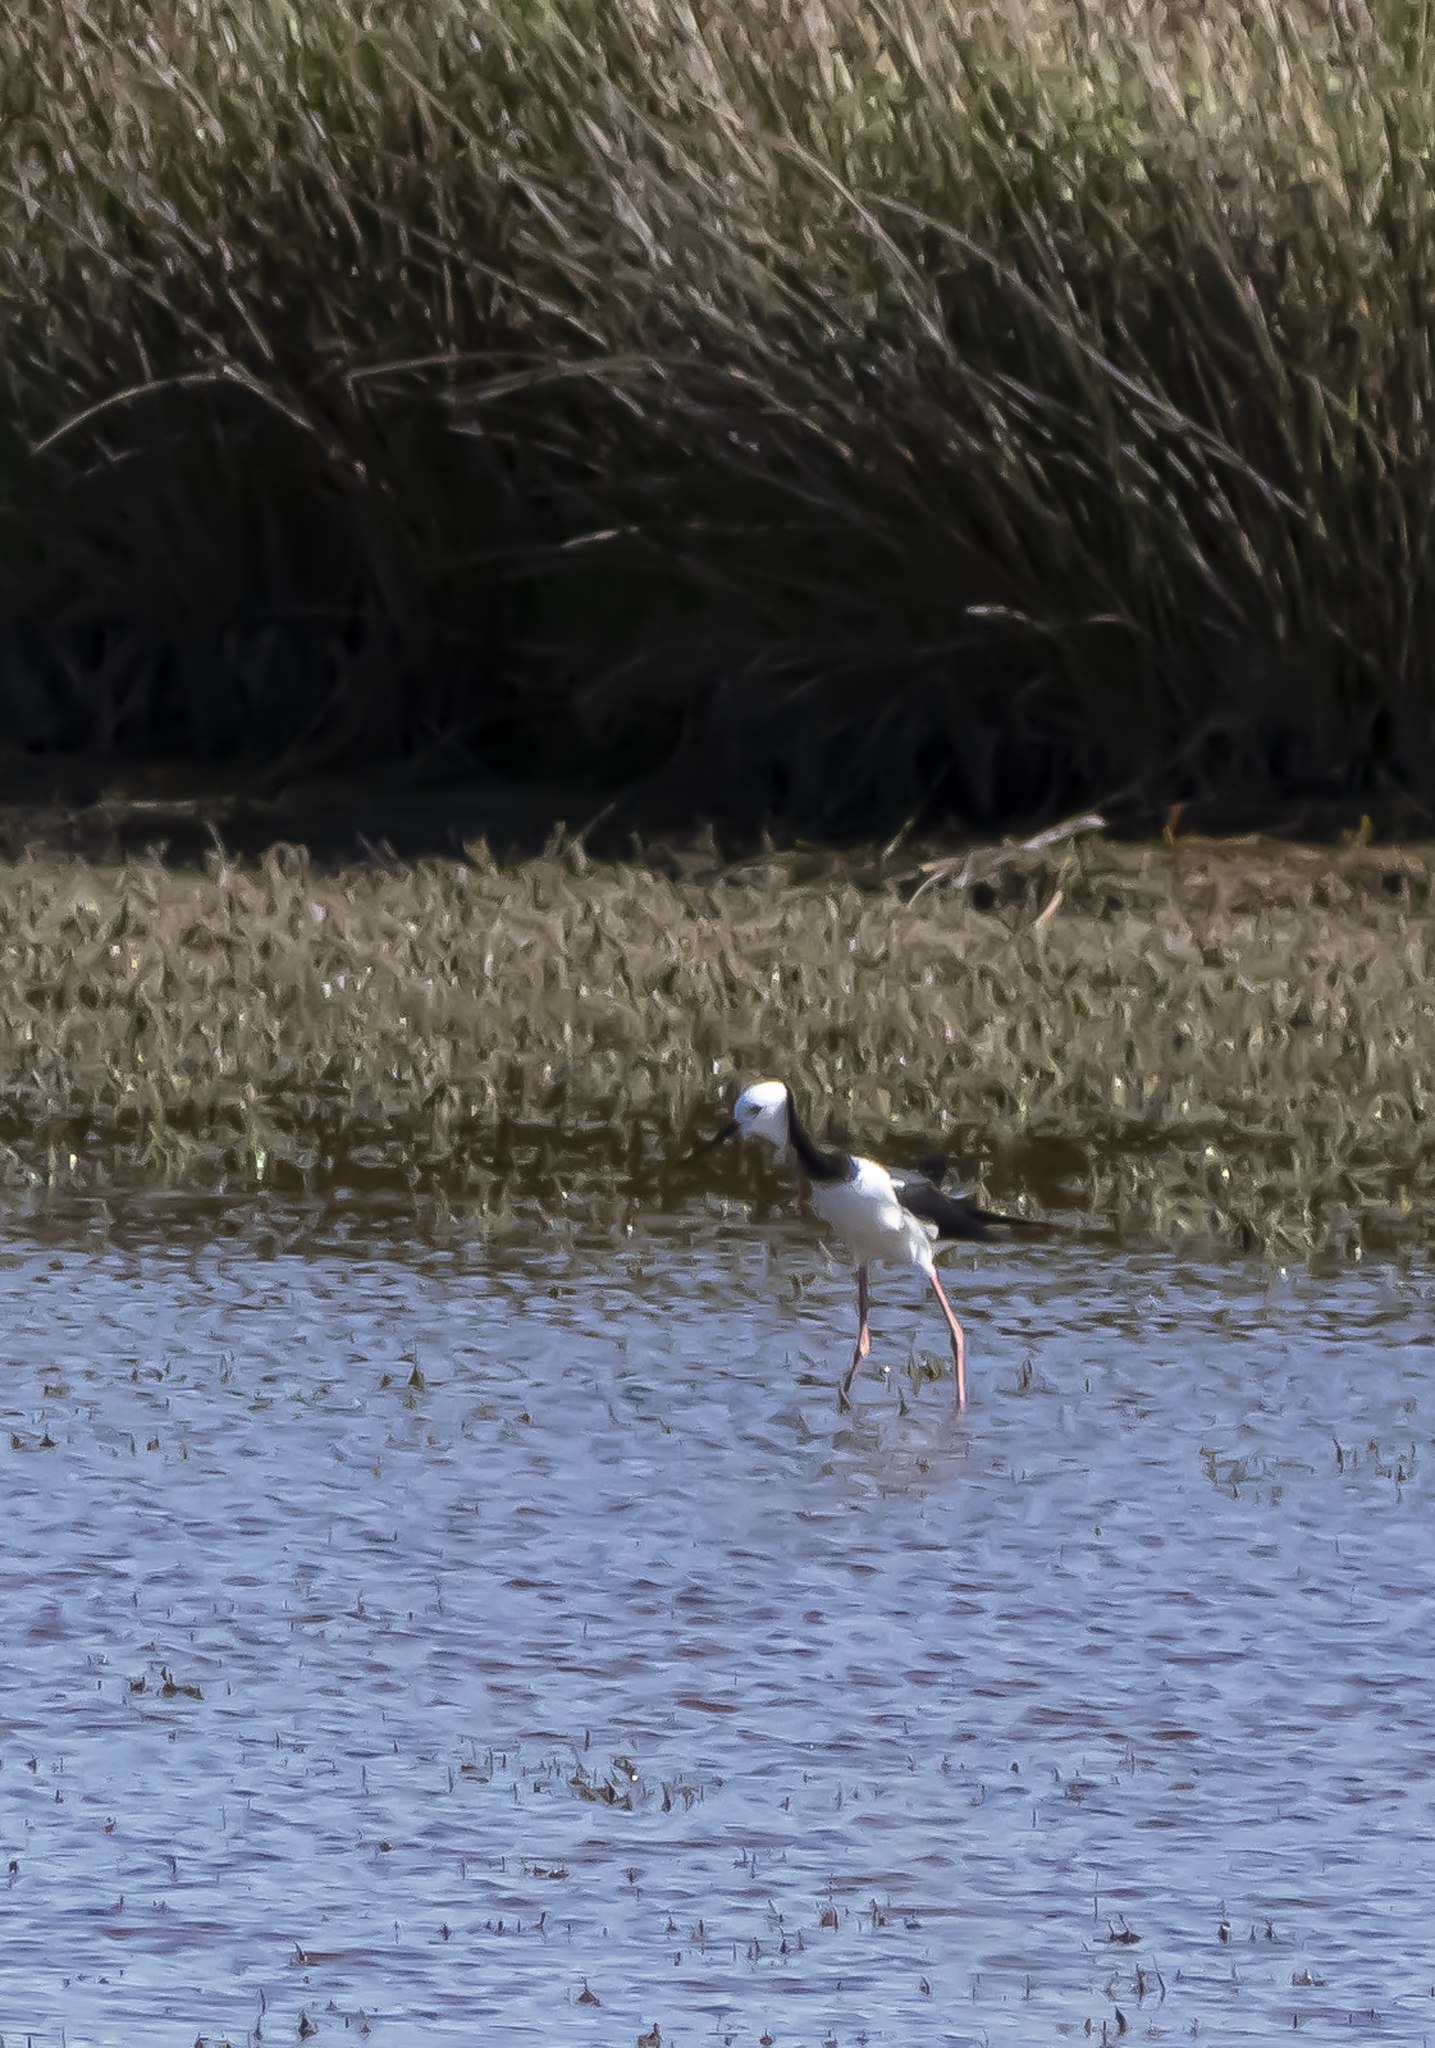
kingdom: Animalia
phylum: Chordata
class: Aves
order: Charadriiformes
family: Recurvirostridae
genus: Himantopus
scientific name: Himantopus leucocephalus
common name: White-headed stilt
